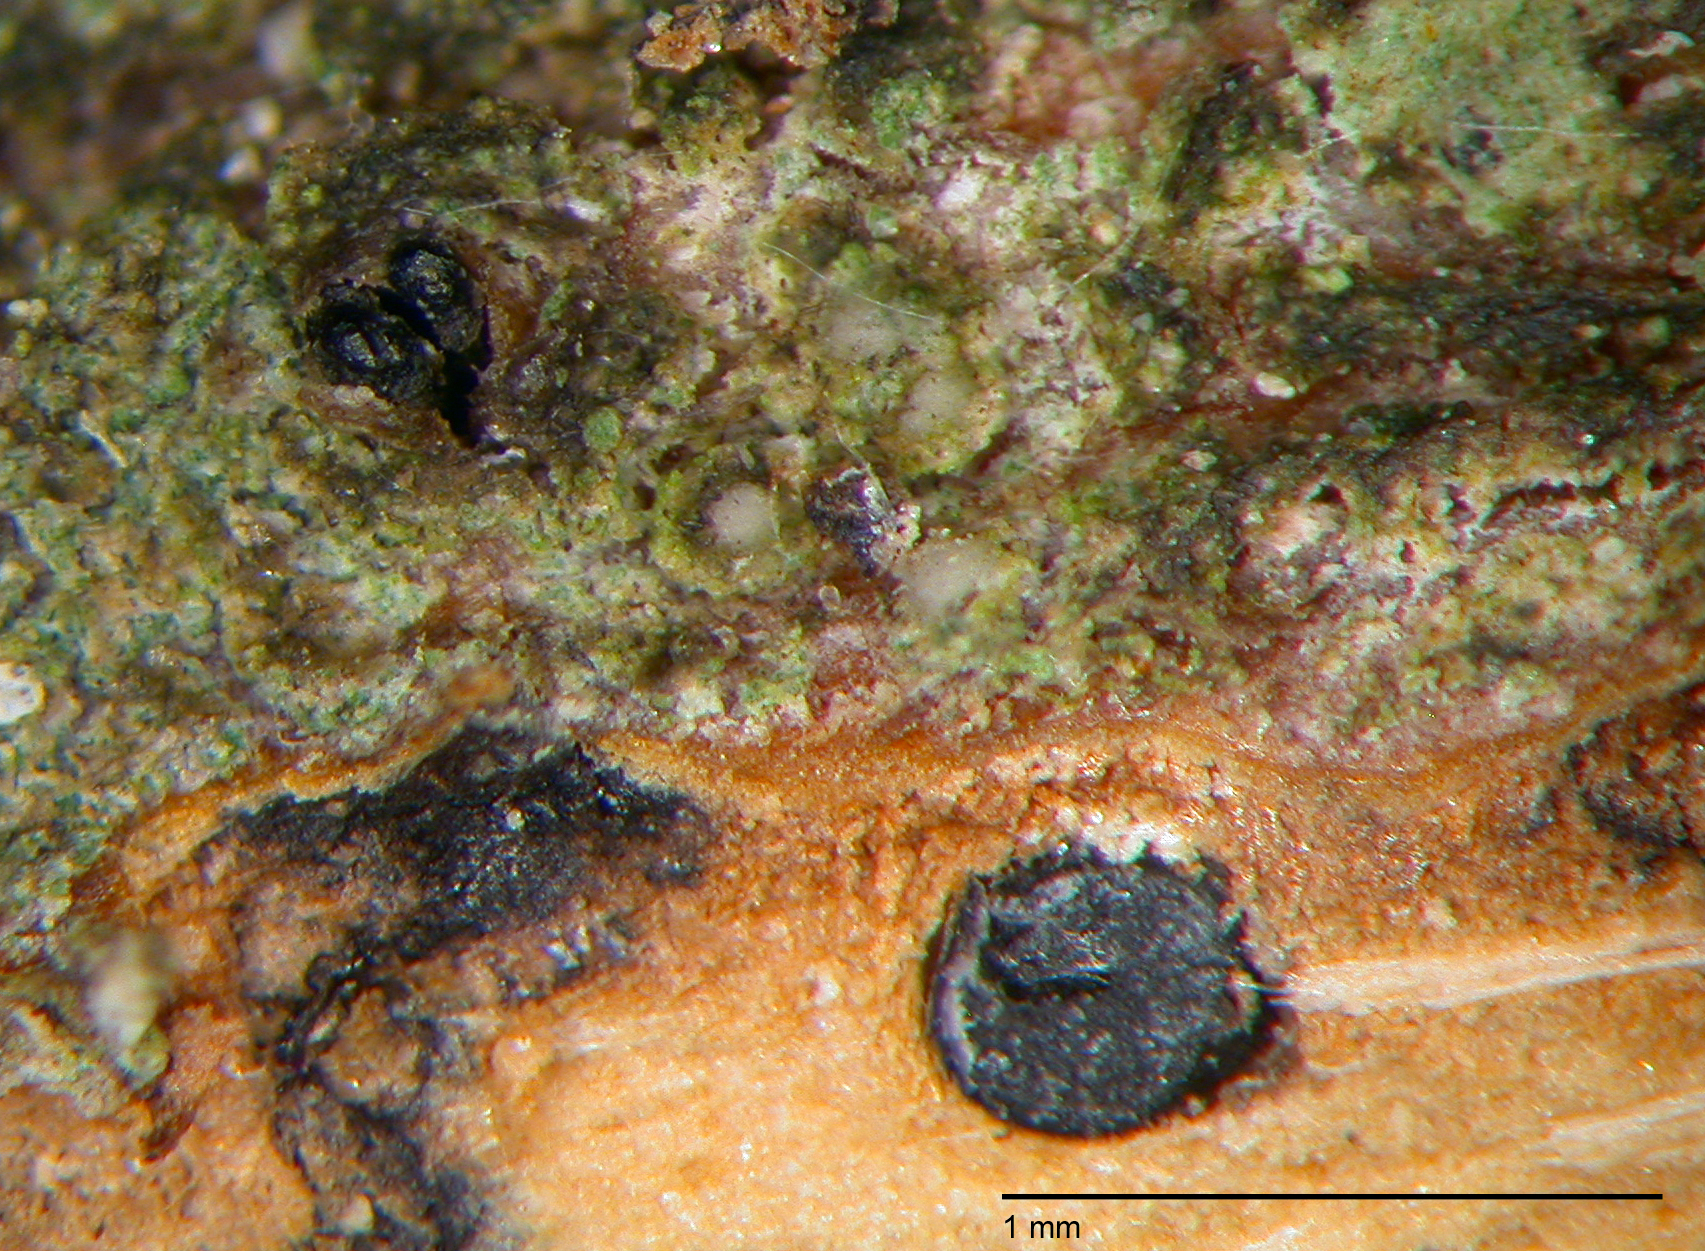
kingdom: Fungi
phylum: Ascomycota
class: Sordariomycetes
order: Diaporthales
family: Diaporthaceae
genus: Diaporthe
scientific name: Diaporthe sophorae
